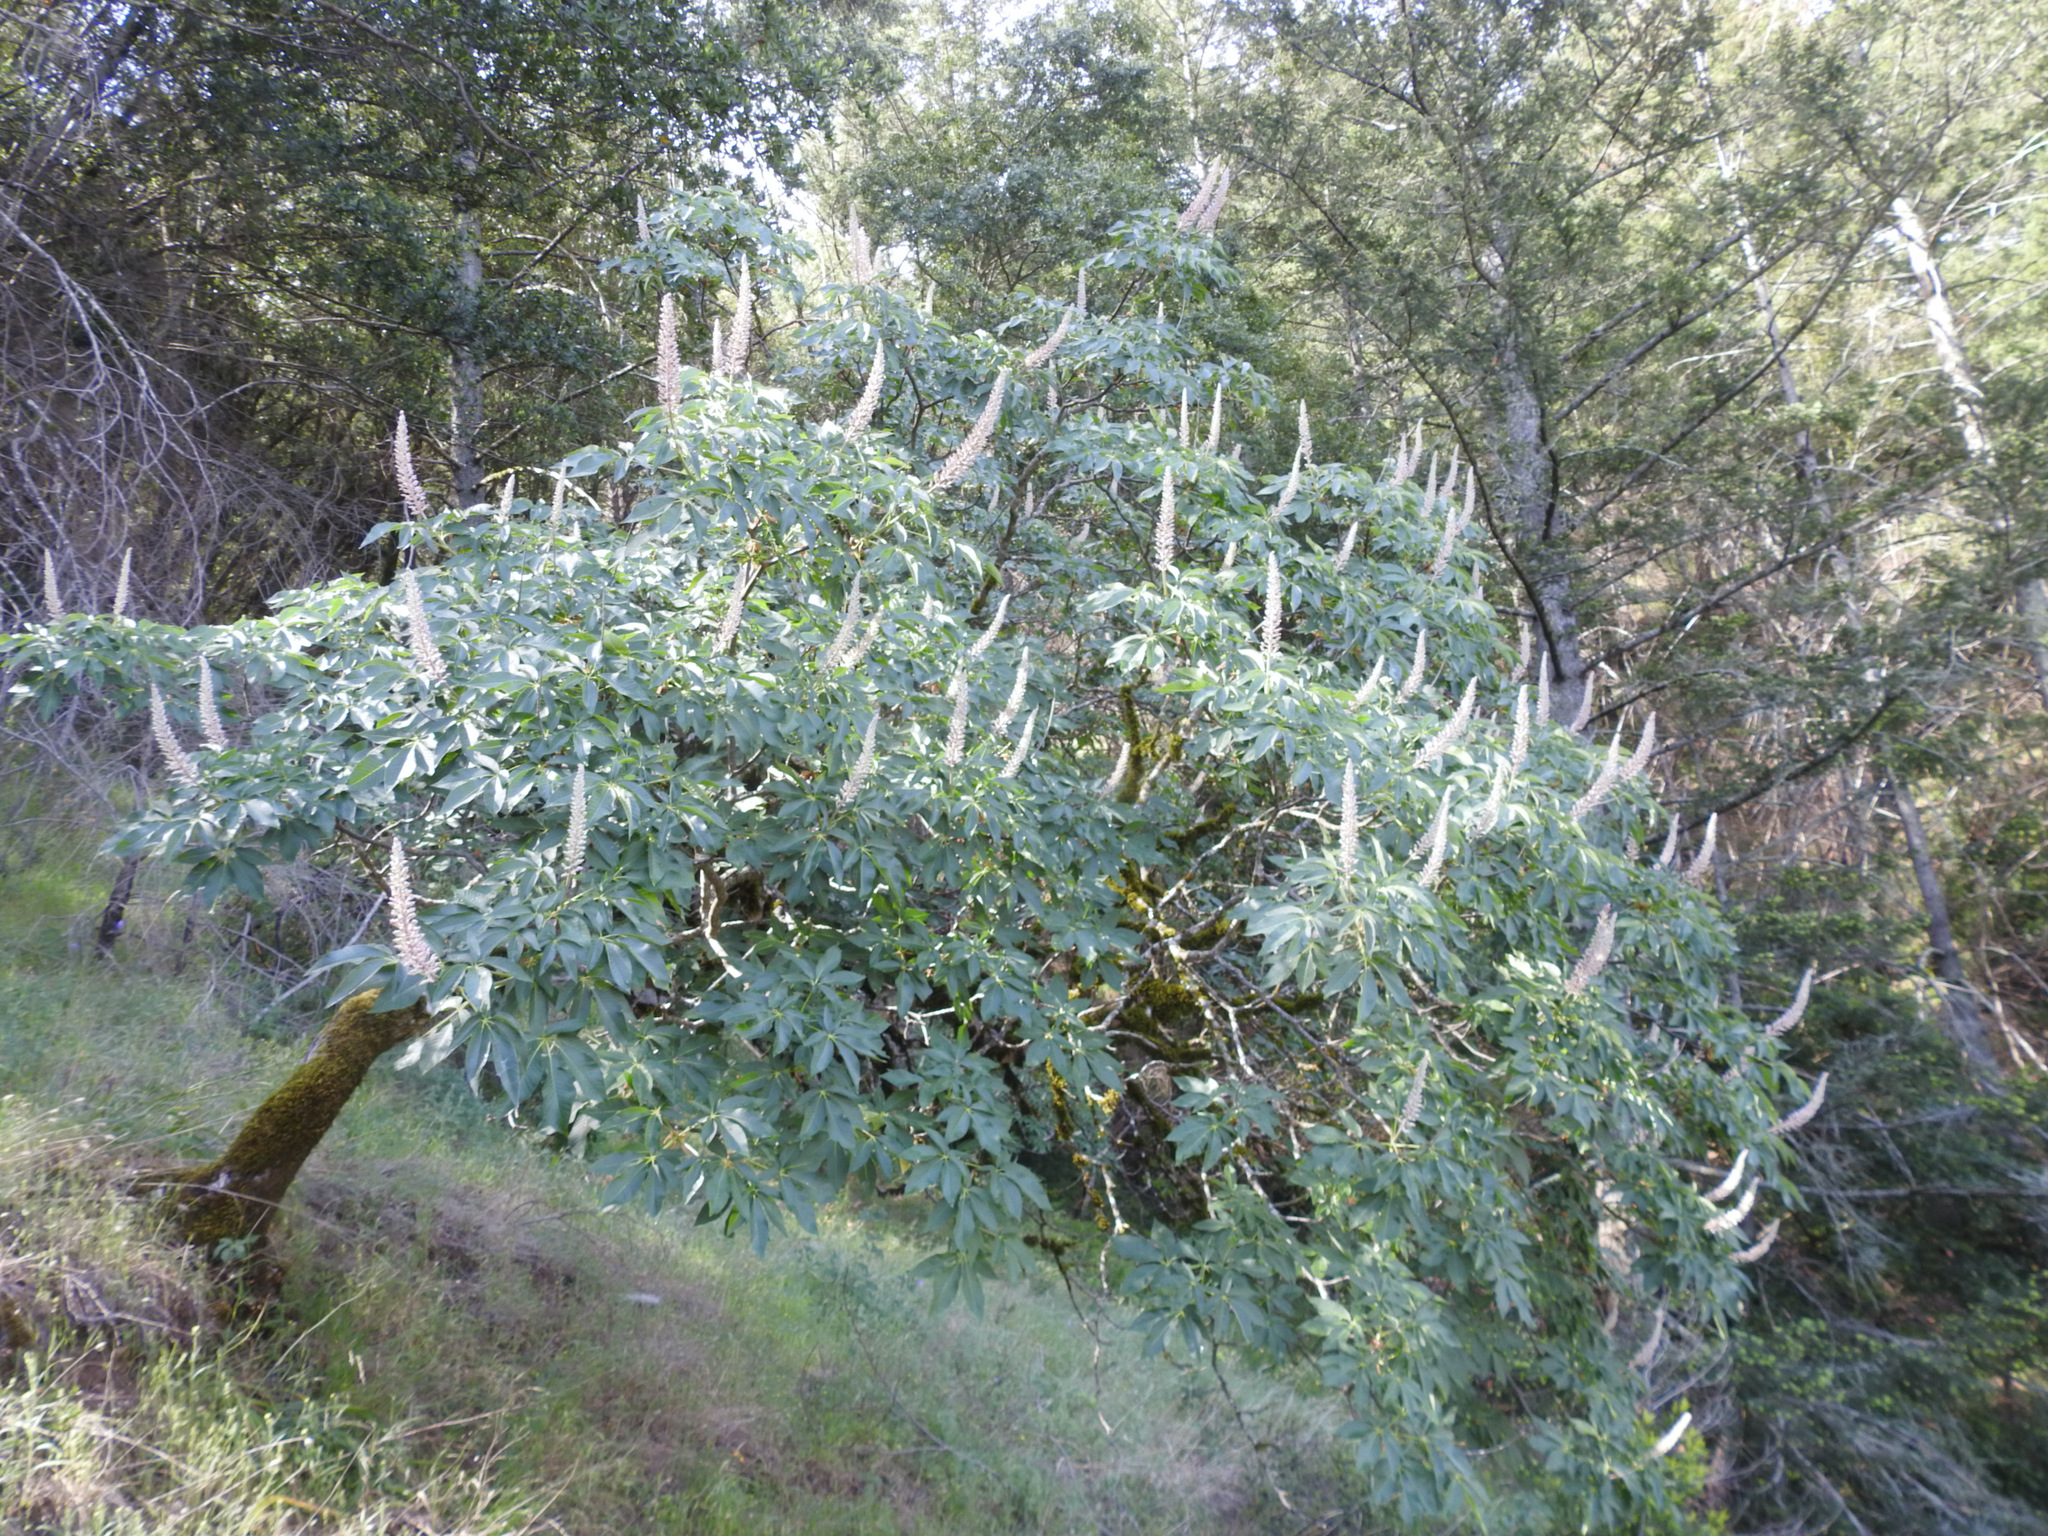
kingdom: Plantae
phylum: Tracheophyta
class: Magnoliopsida
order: Sapindales
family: Sapindaceae
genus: Aesculus
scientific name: Aesculus californica
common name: California buckeye
